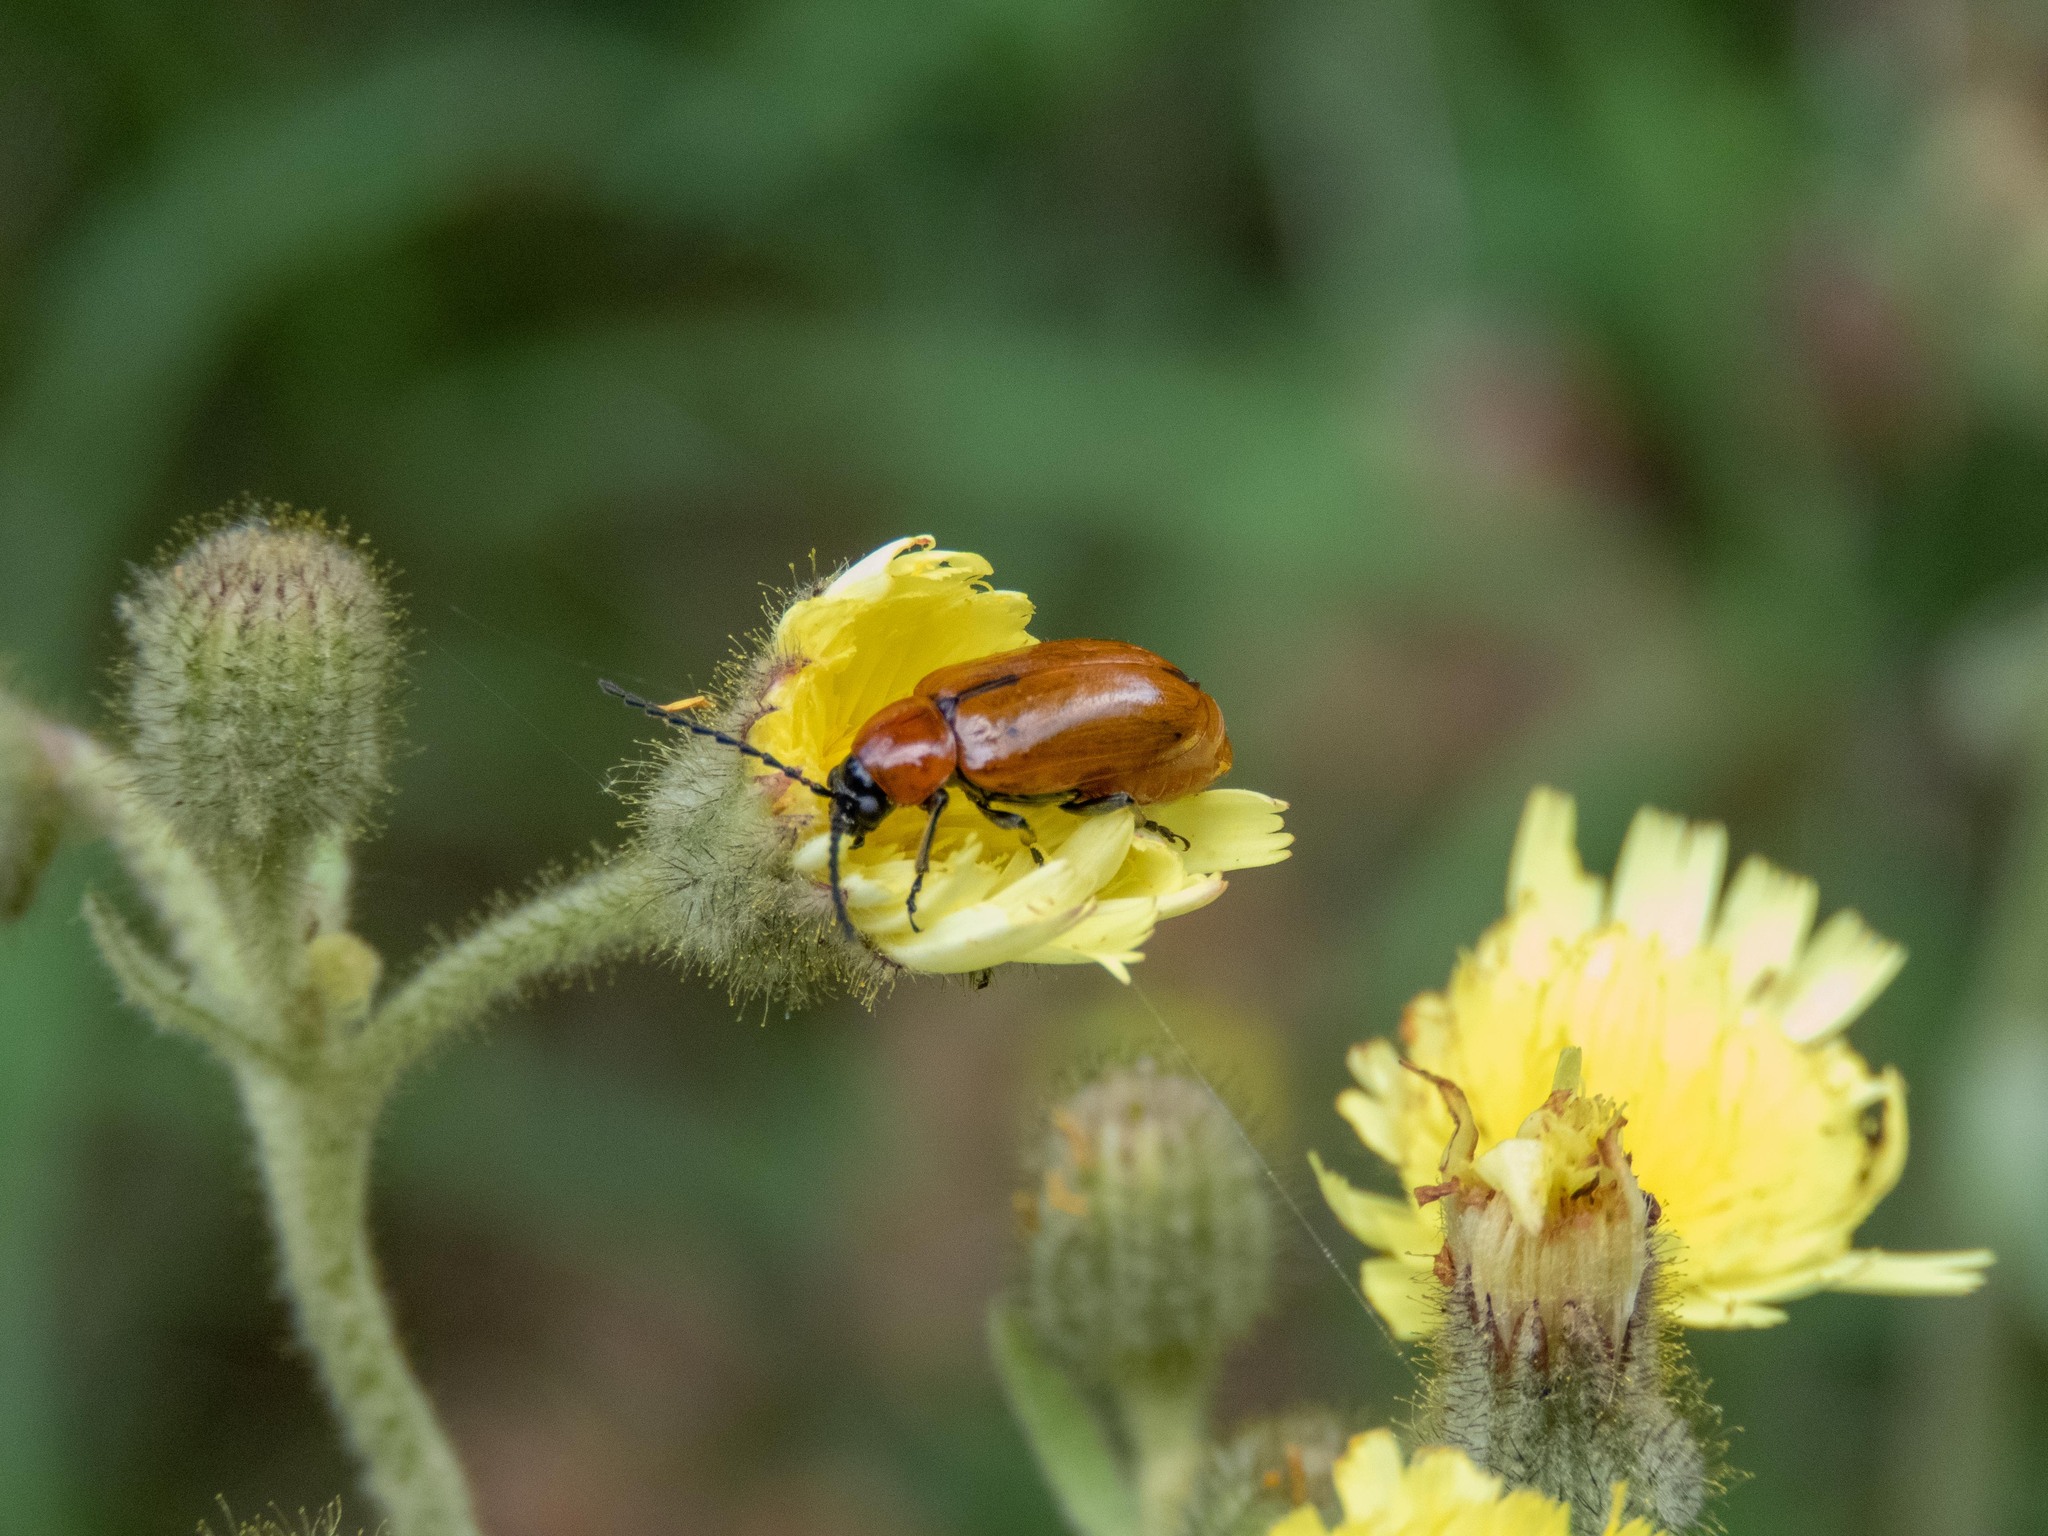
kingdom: Animalia
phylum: Arthropoda
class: Insecta
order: Coleoptera
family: Chrysomelidae
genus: Exosoma
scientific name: Exosoma lusitanicum
